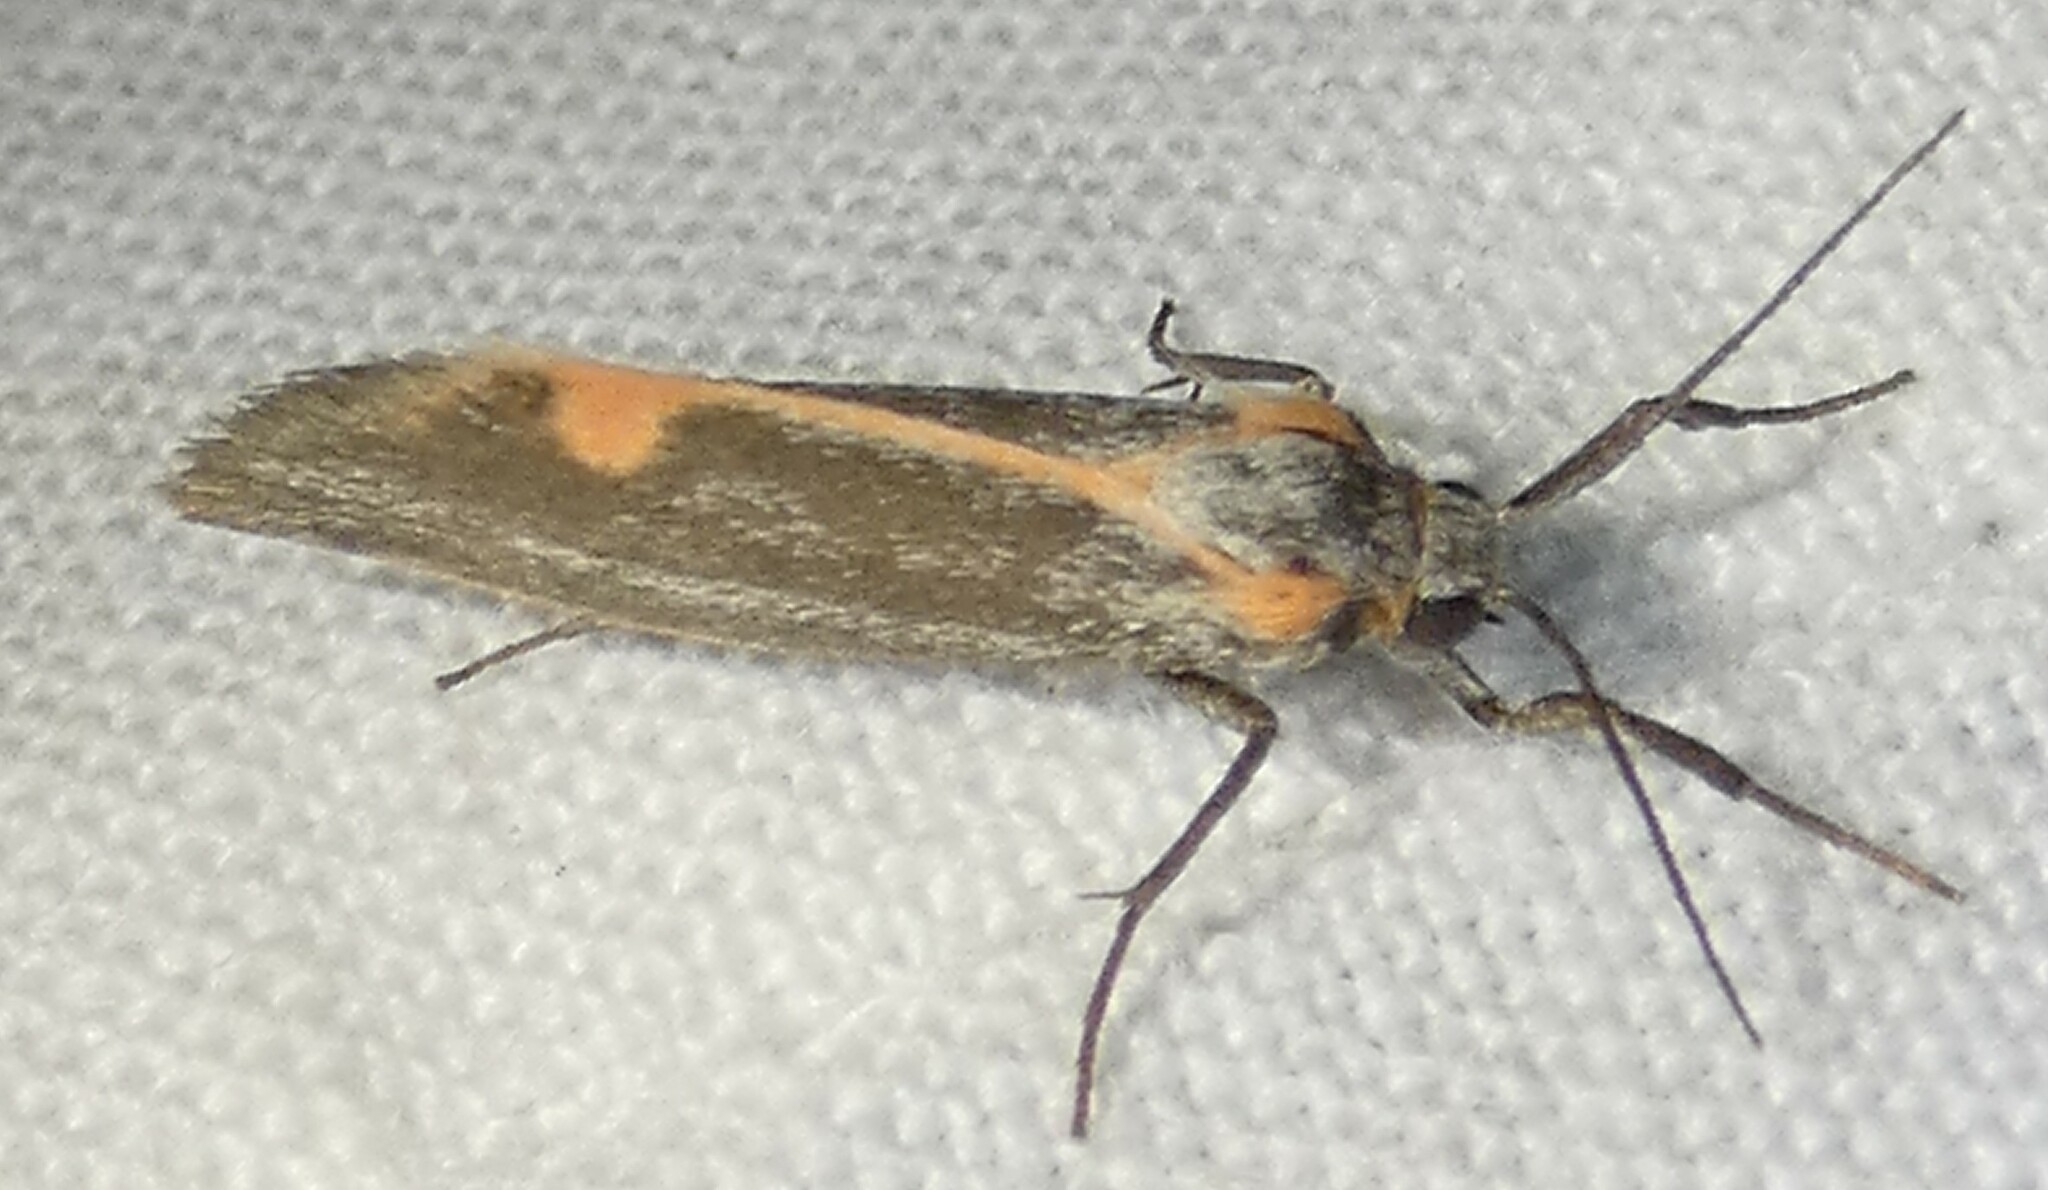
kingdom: Animalia
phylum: Arthropoda
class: Insecta
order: Lepidoptera
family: Erebidae
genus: Cisthene
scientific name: Cisthene striata
